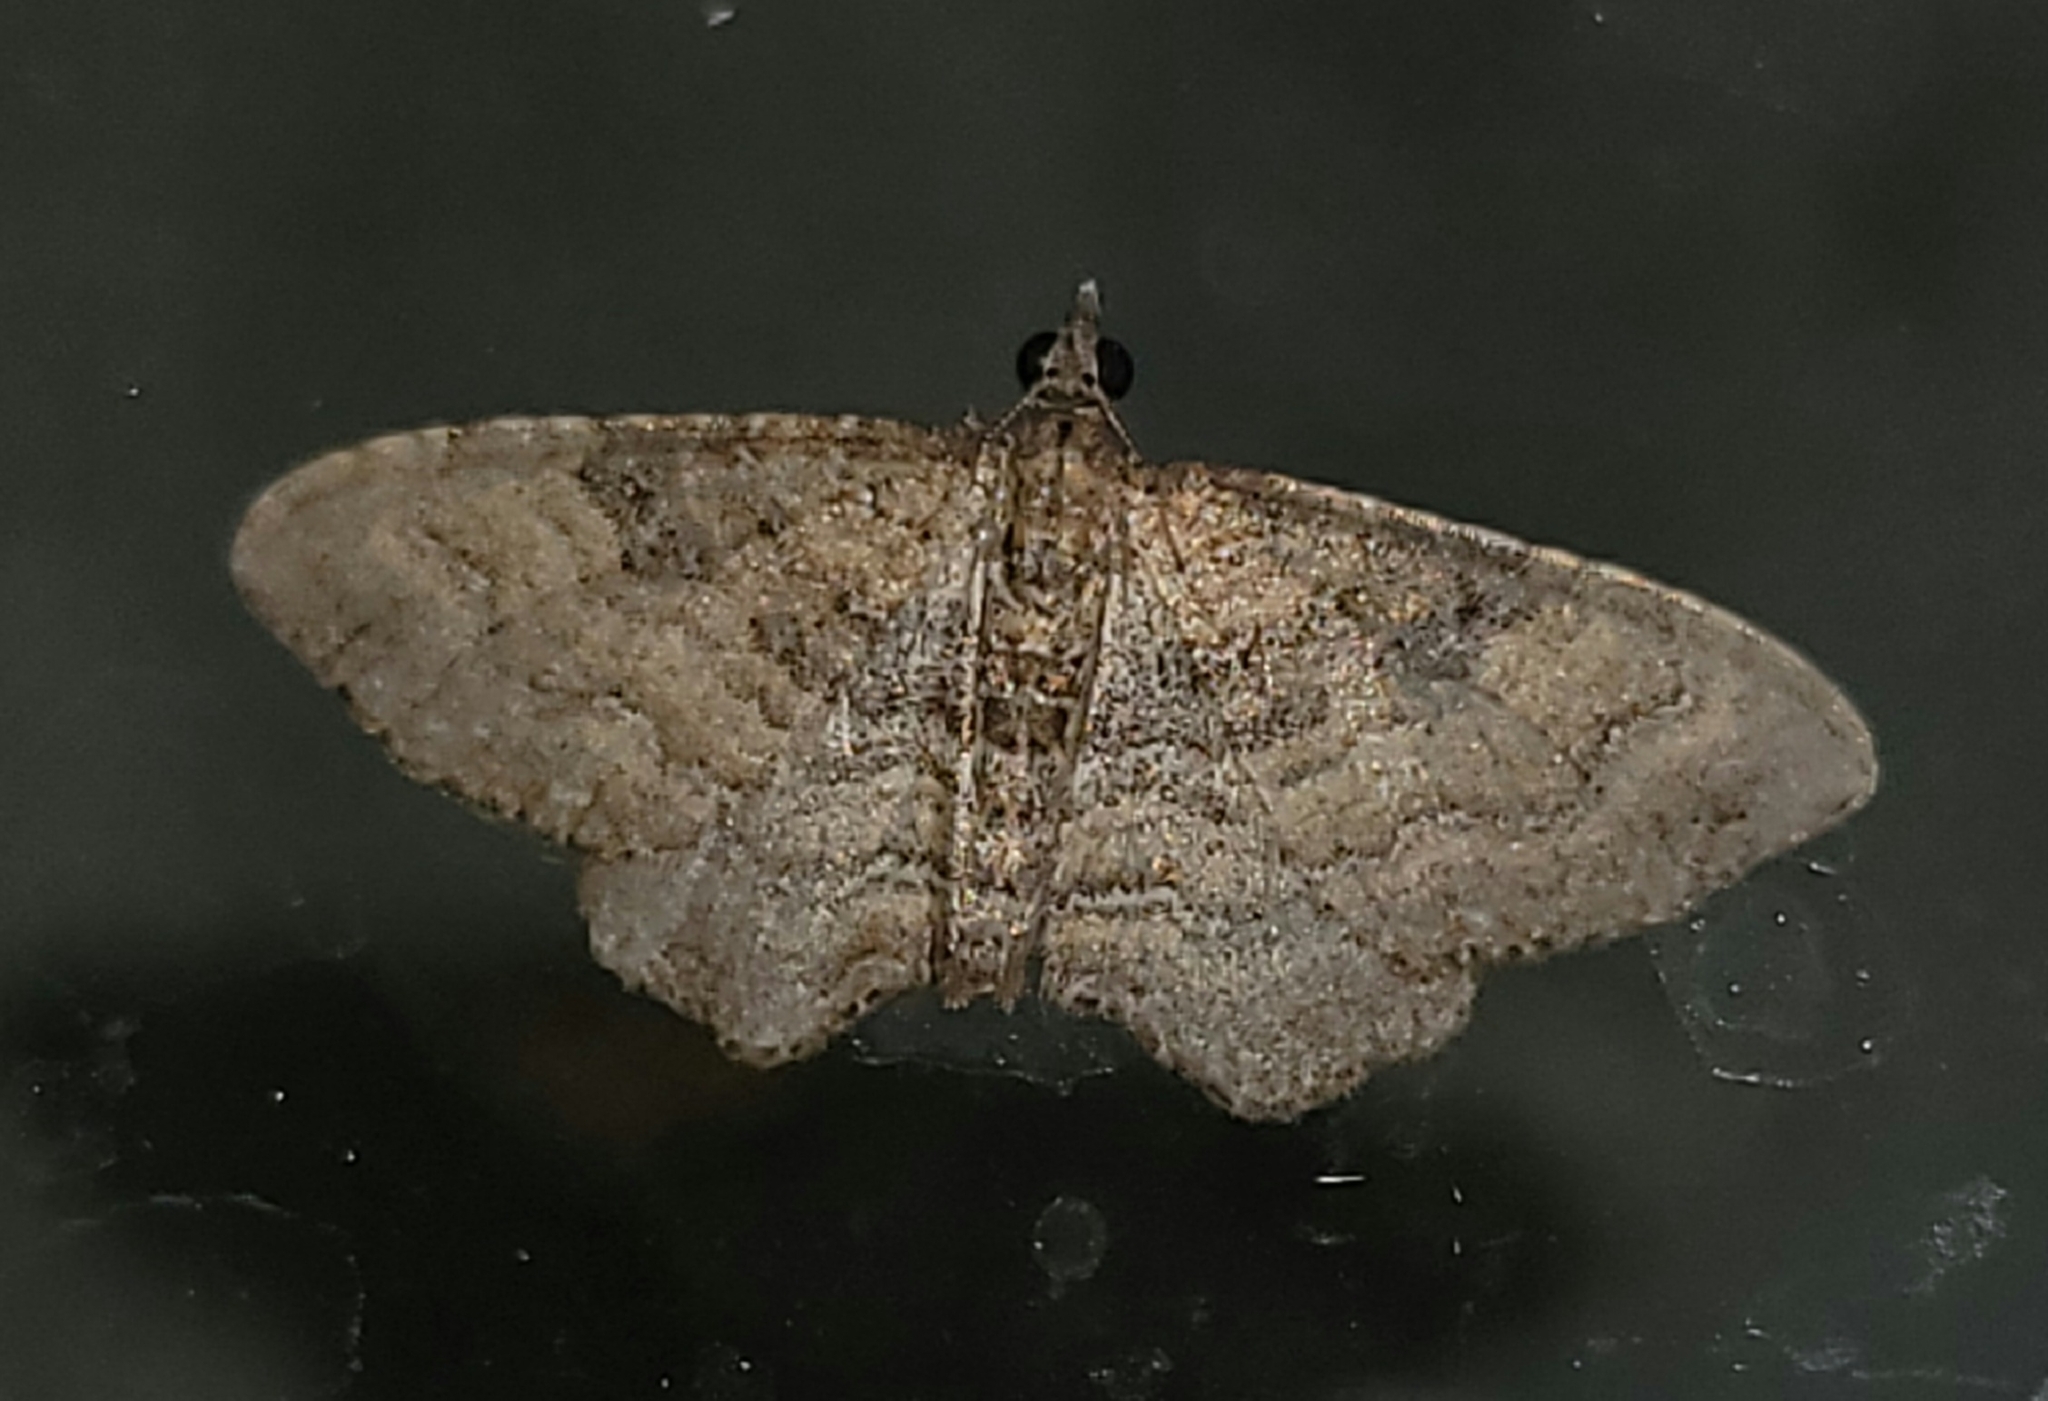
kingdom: Animalia
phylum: Arthropoda
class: Insecta
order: Lepidoptera
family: Geometridae
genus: Orthonama
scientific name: Orthonama obstipata
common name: The gem
